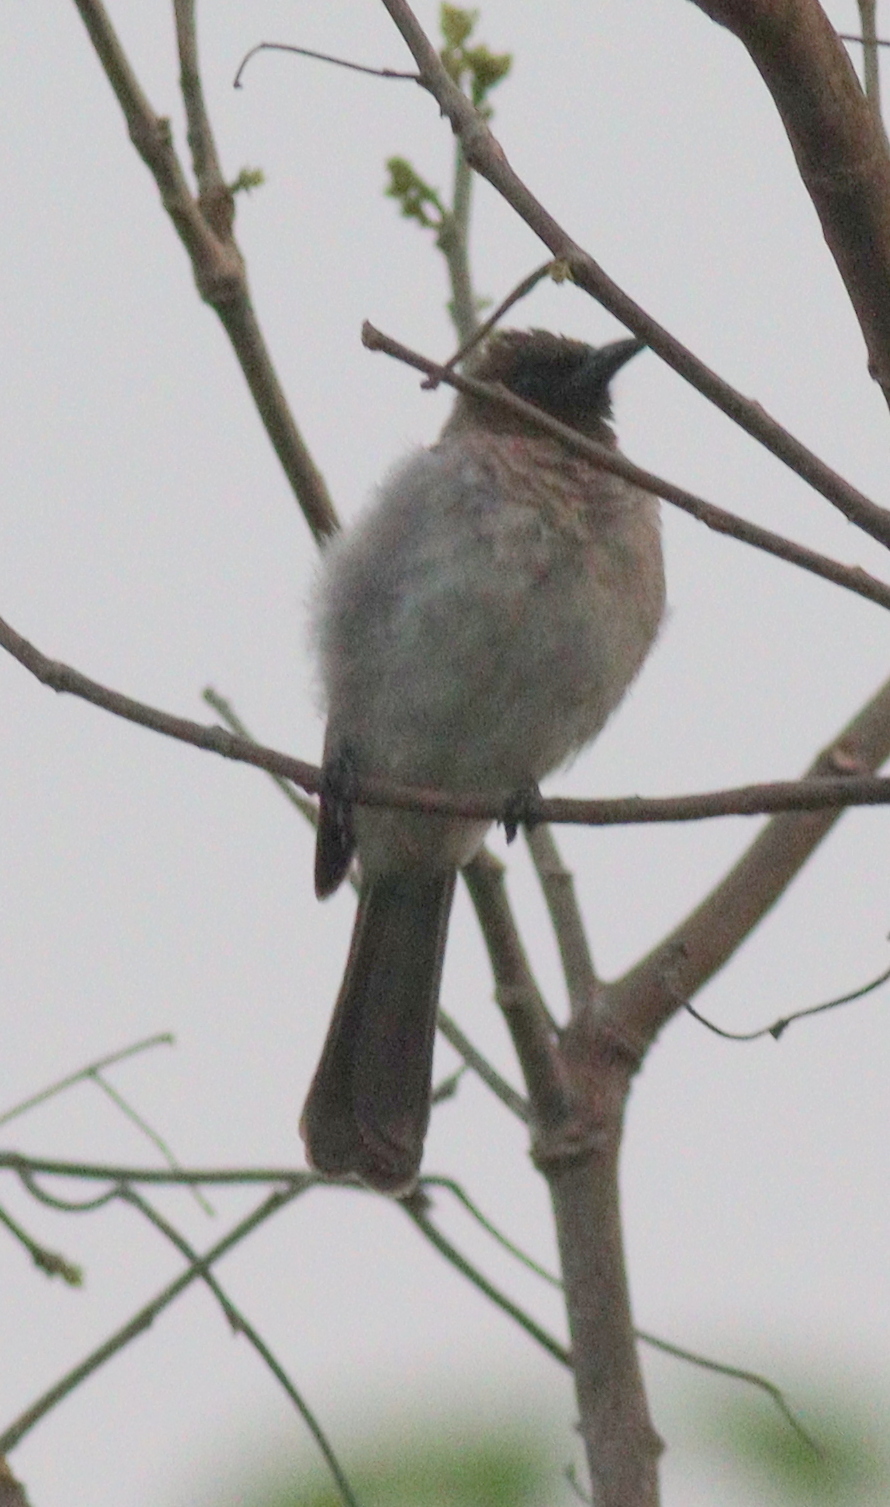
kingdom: Animalia
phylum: Chordata
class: Aves
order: Passeriformes
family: Pycnonotidae
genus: Pycnonotus
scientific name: Pycnonotus barbatus
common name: Common bulbul
